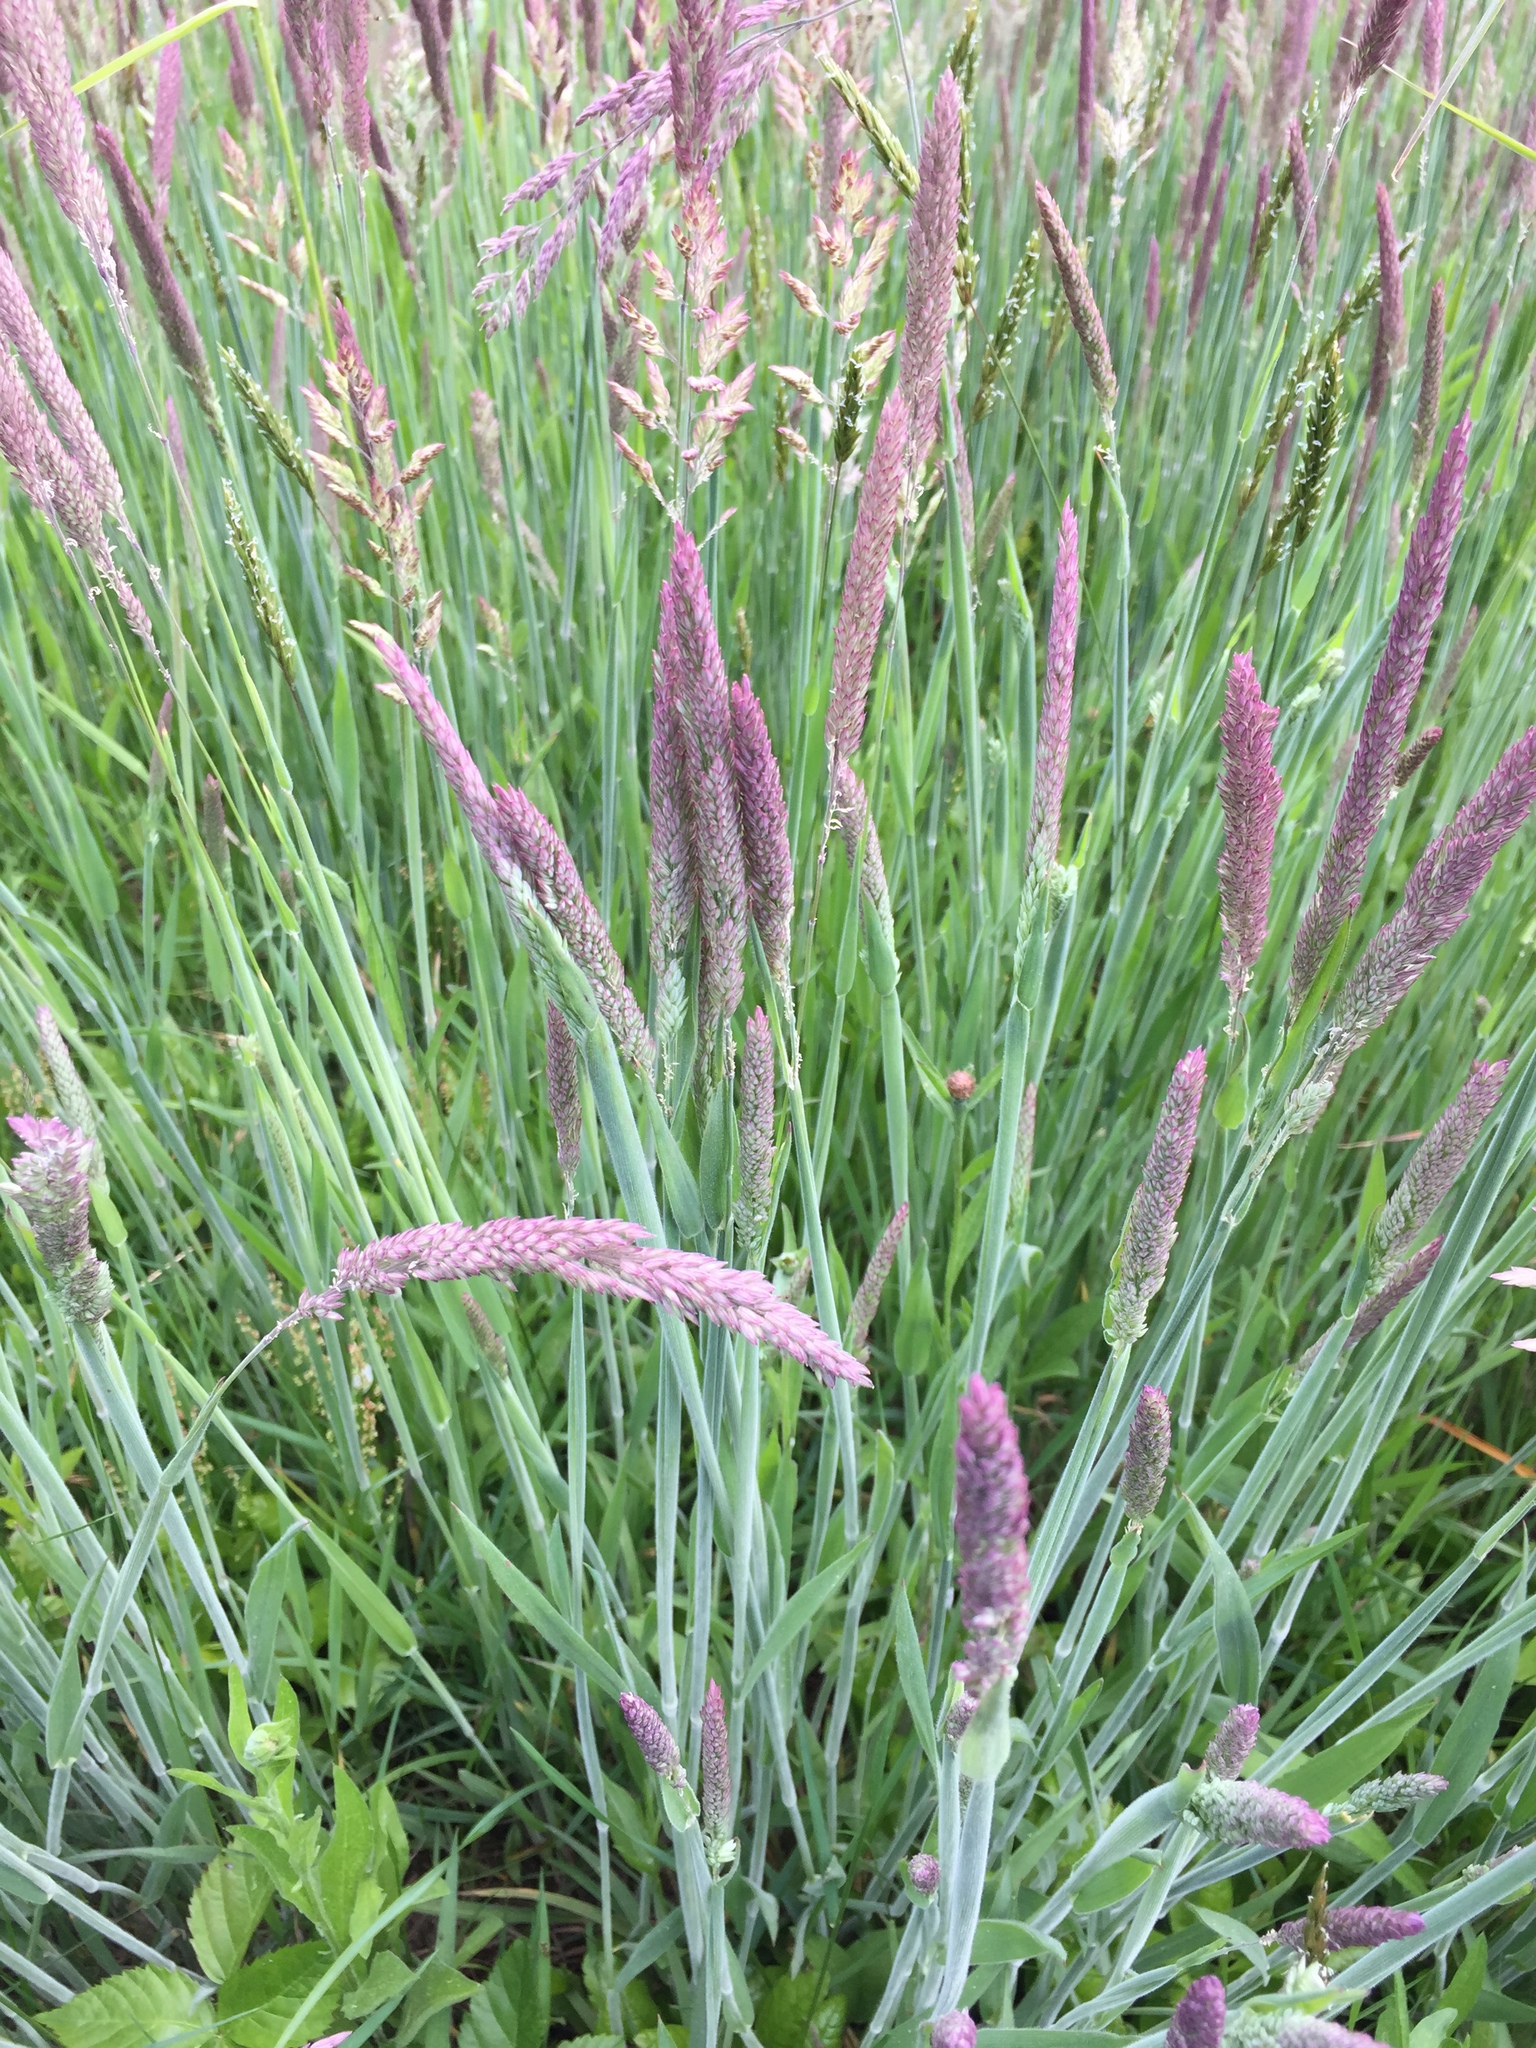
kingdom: Plantae
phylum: Tracheophyta
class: Liliopsida
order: Poales
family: Poaceae
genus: Holcus
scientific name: Holcus lanatus
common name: Yorkshire-fog
